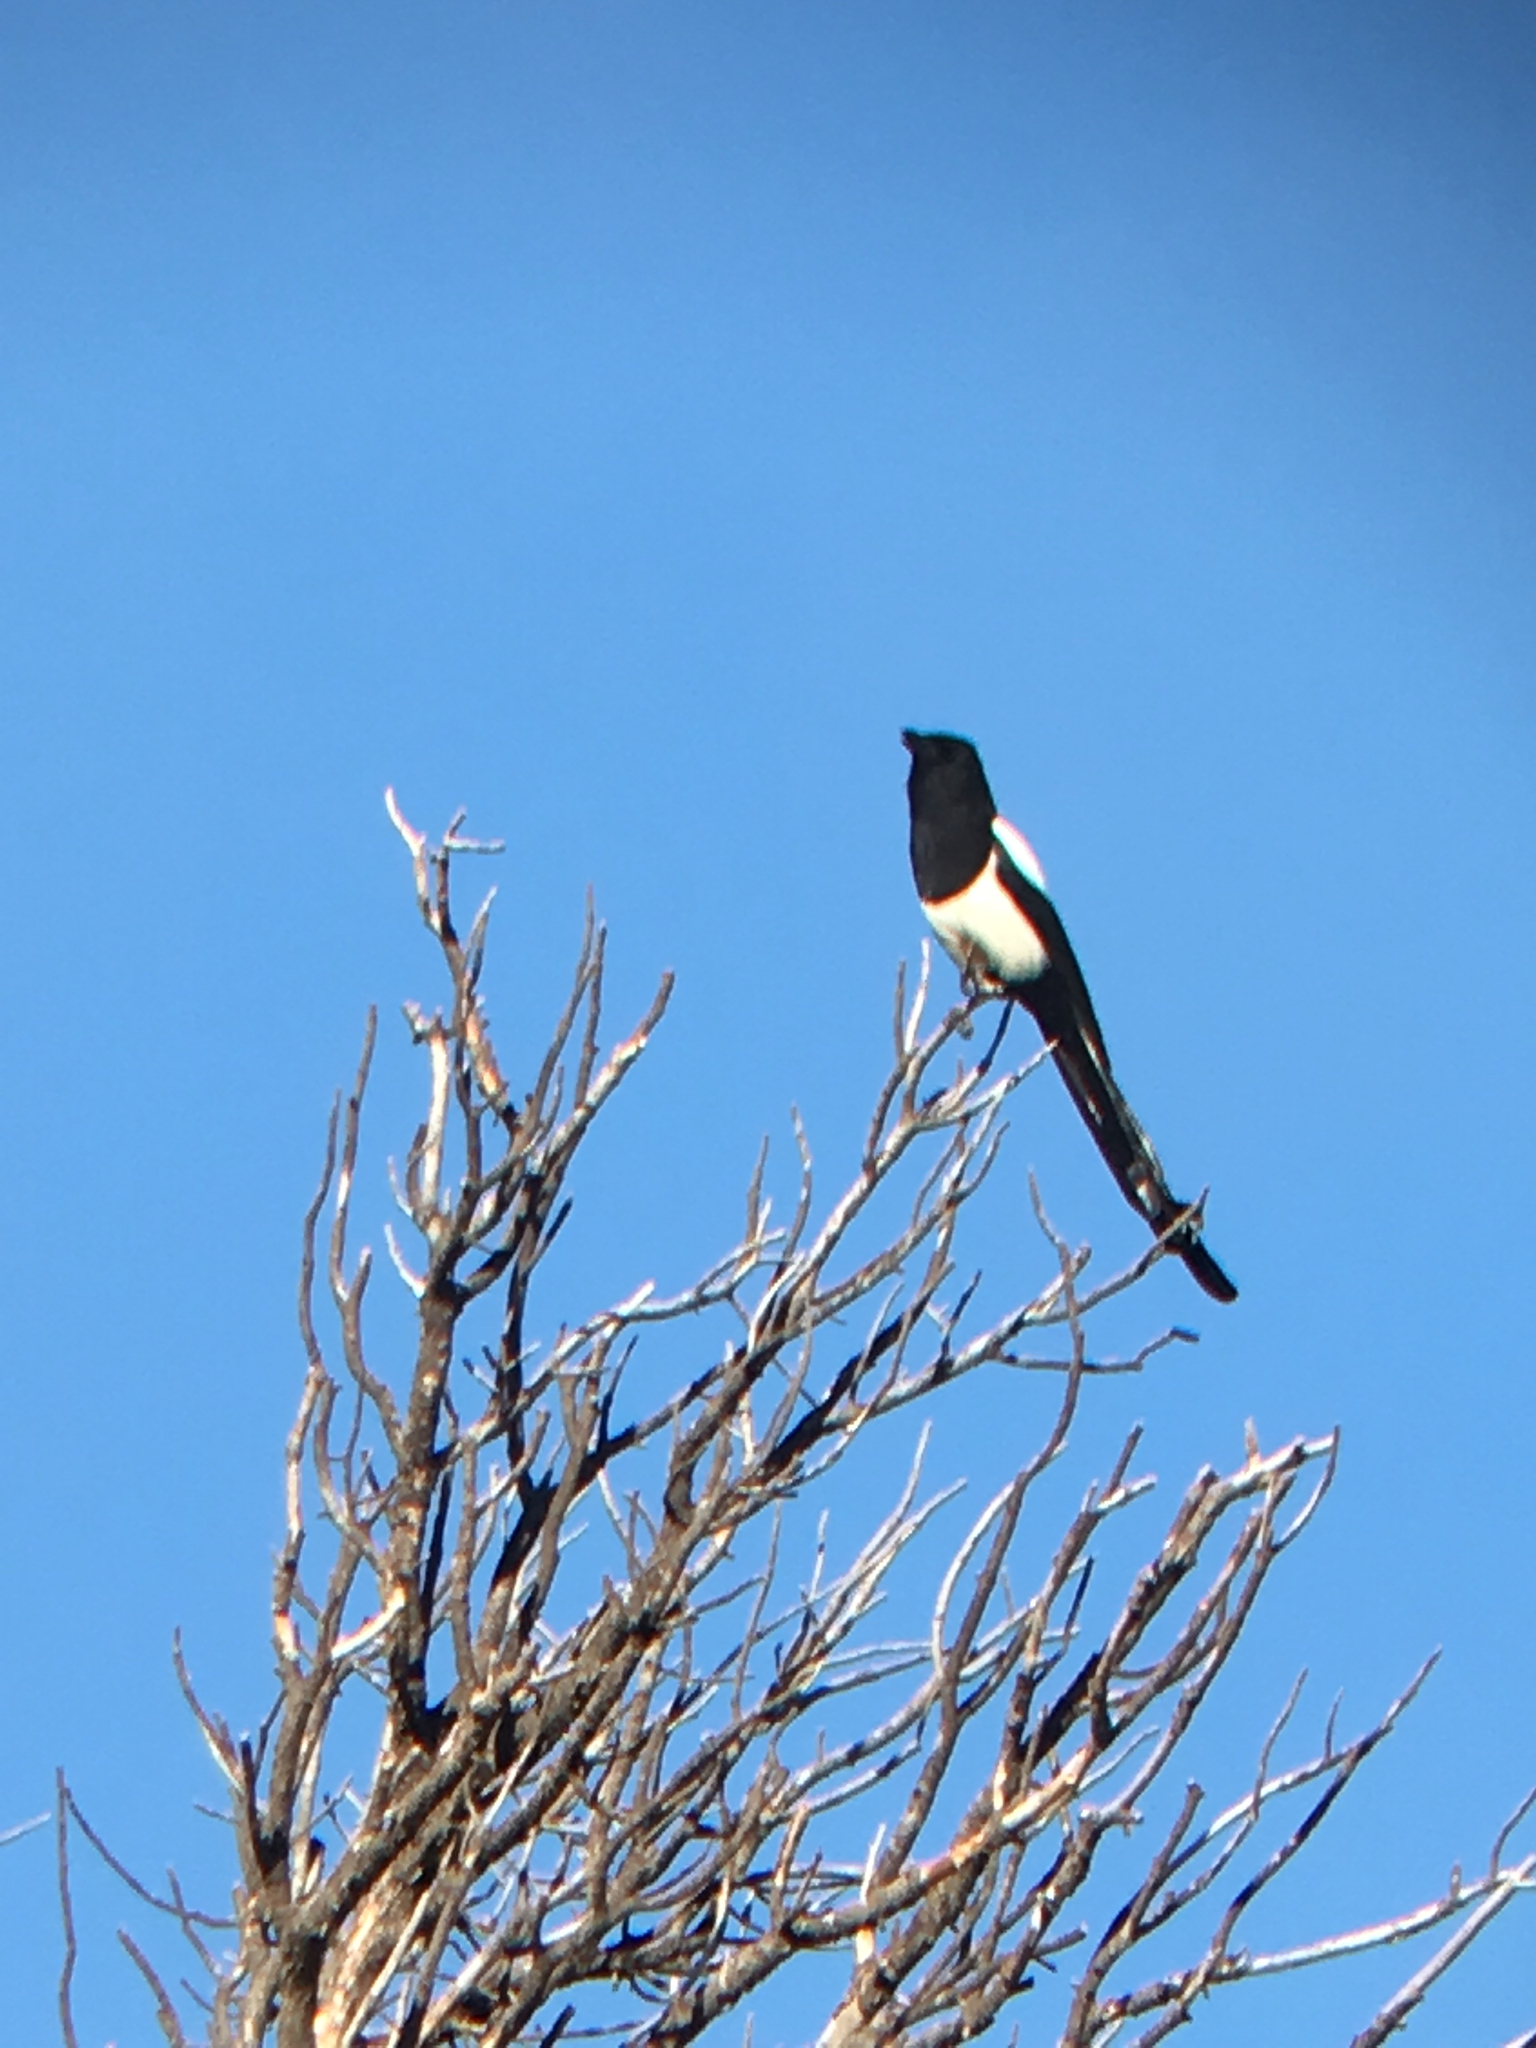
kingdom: Animalia
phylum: Chordata
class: Aves
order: Passeriformes
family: Corvidae
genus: Pica
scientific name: Pica hudsonia
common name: Black-billed magpie
